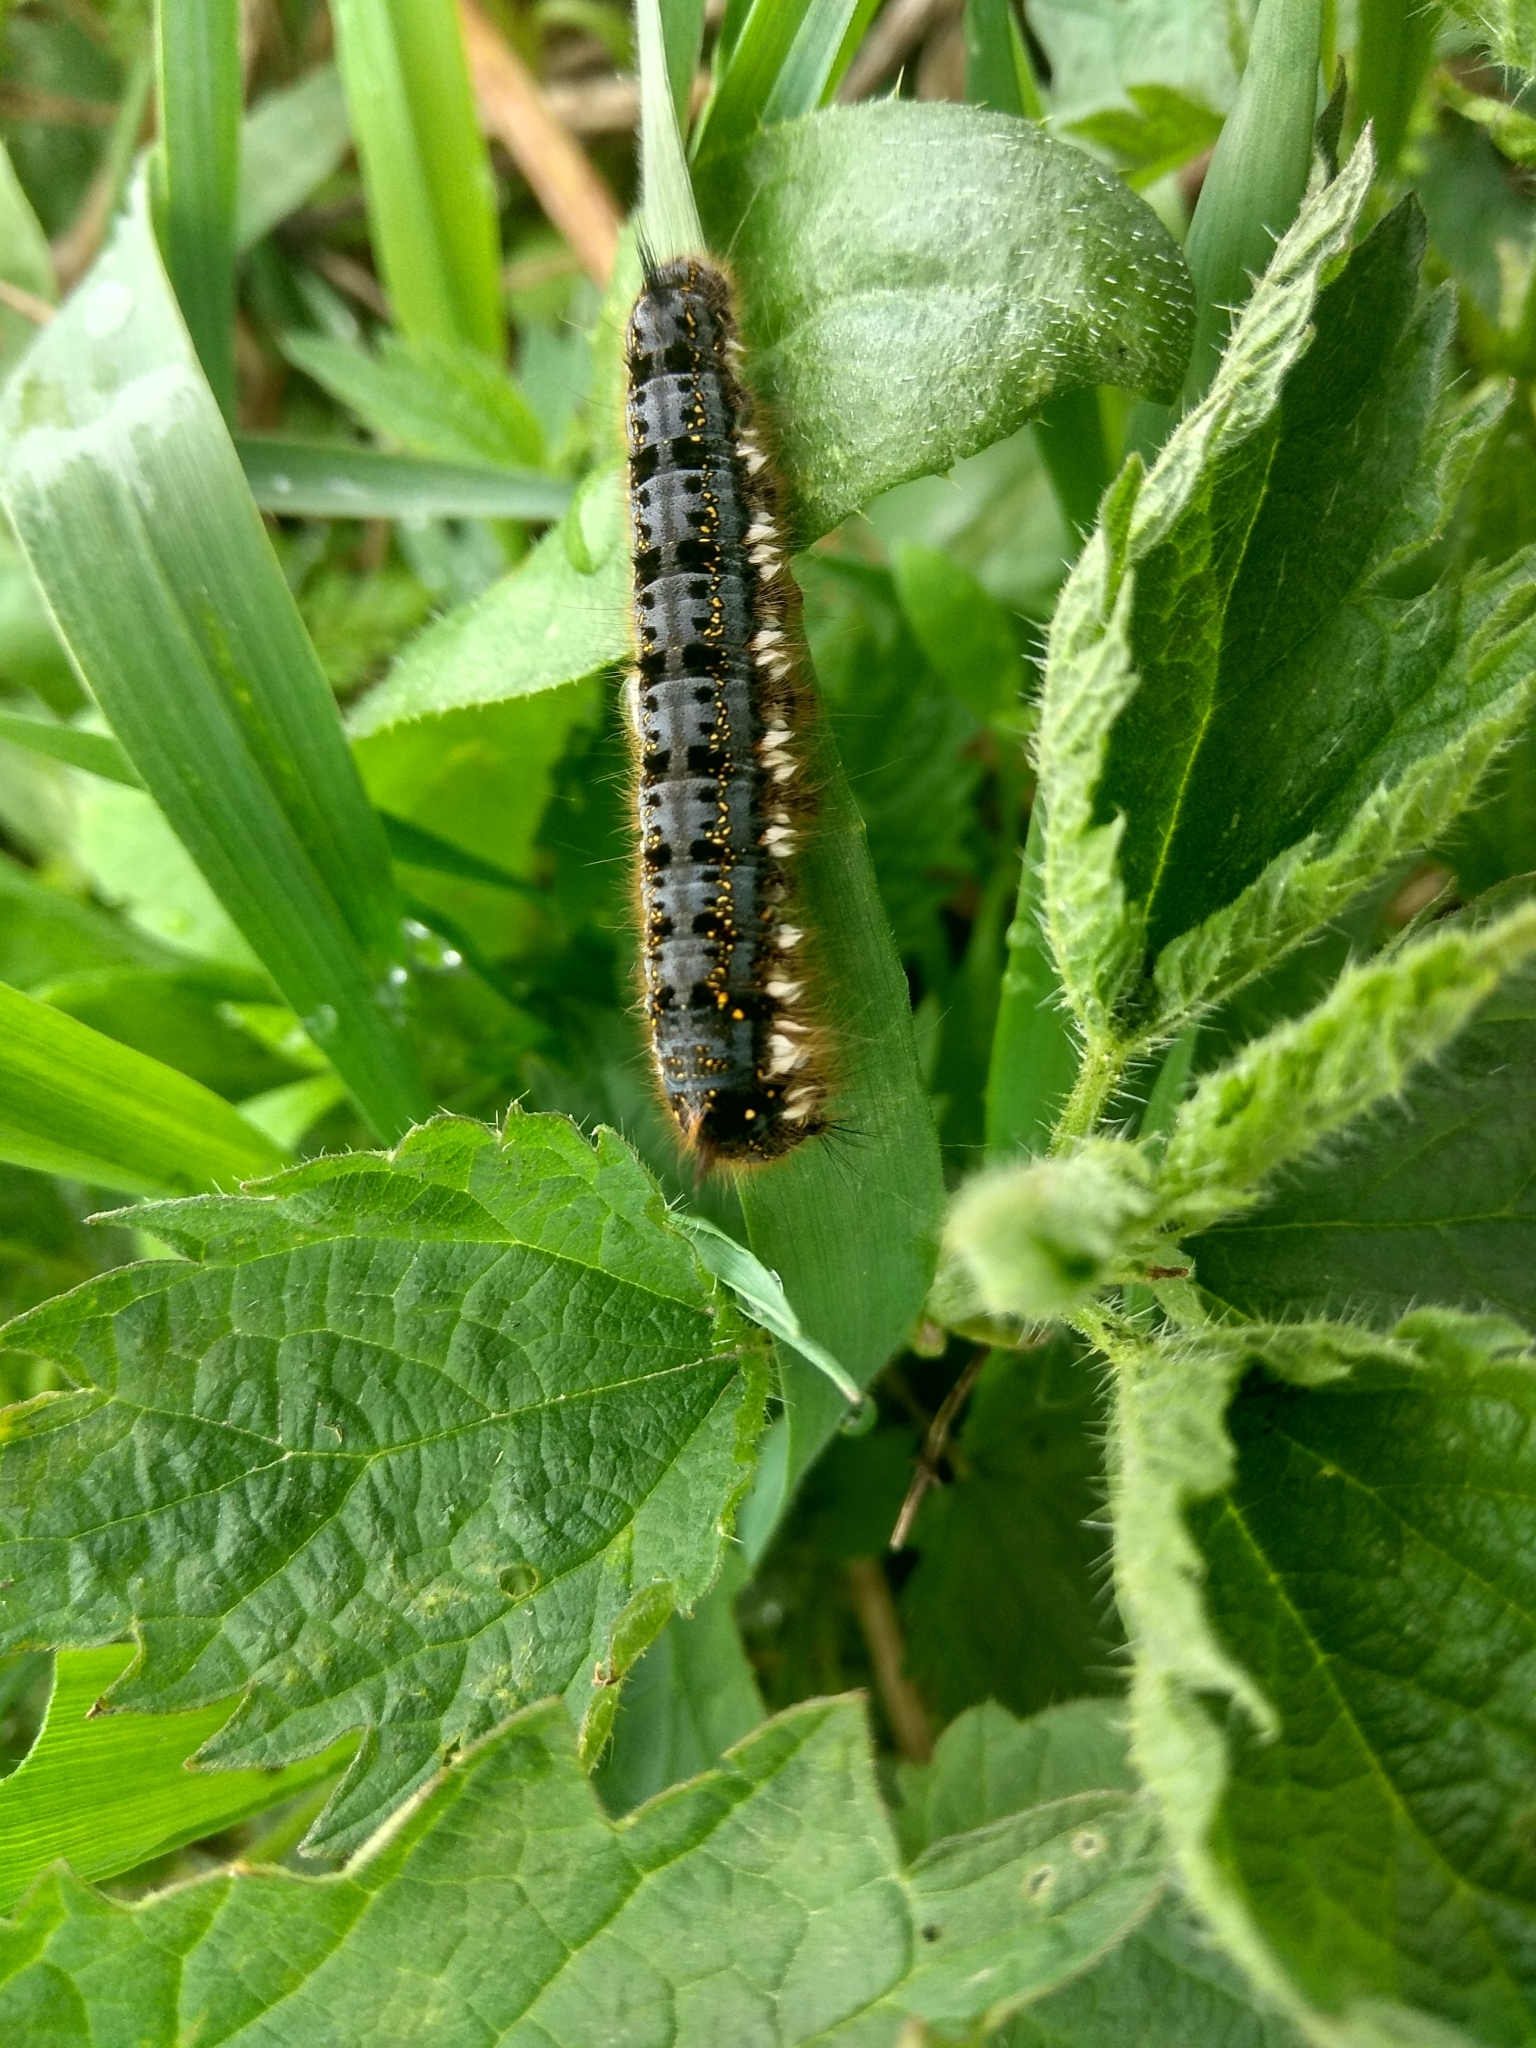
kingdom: Animalia
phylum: Arthropoda
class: Insecta
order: Lepidoptera
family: Lasiocampidae
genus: Euthrix
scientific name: Euthrix potatoria
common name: Drinker
